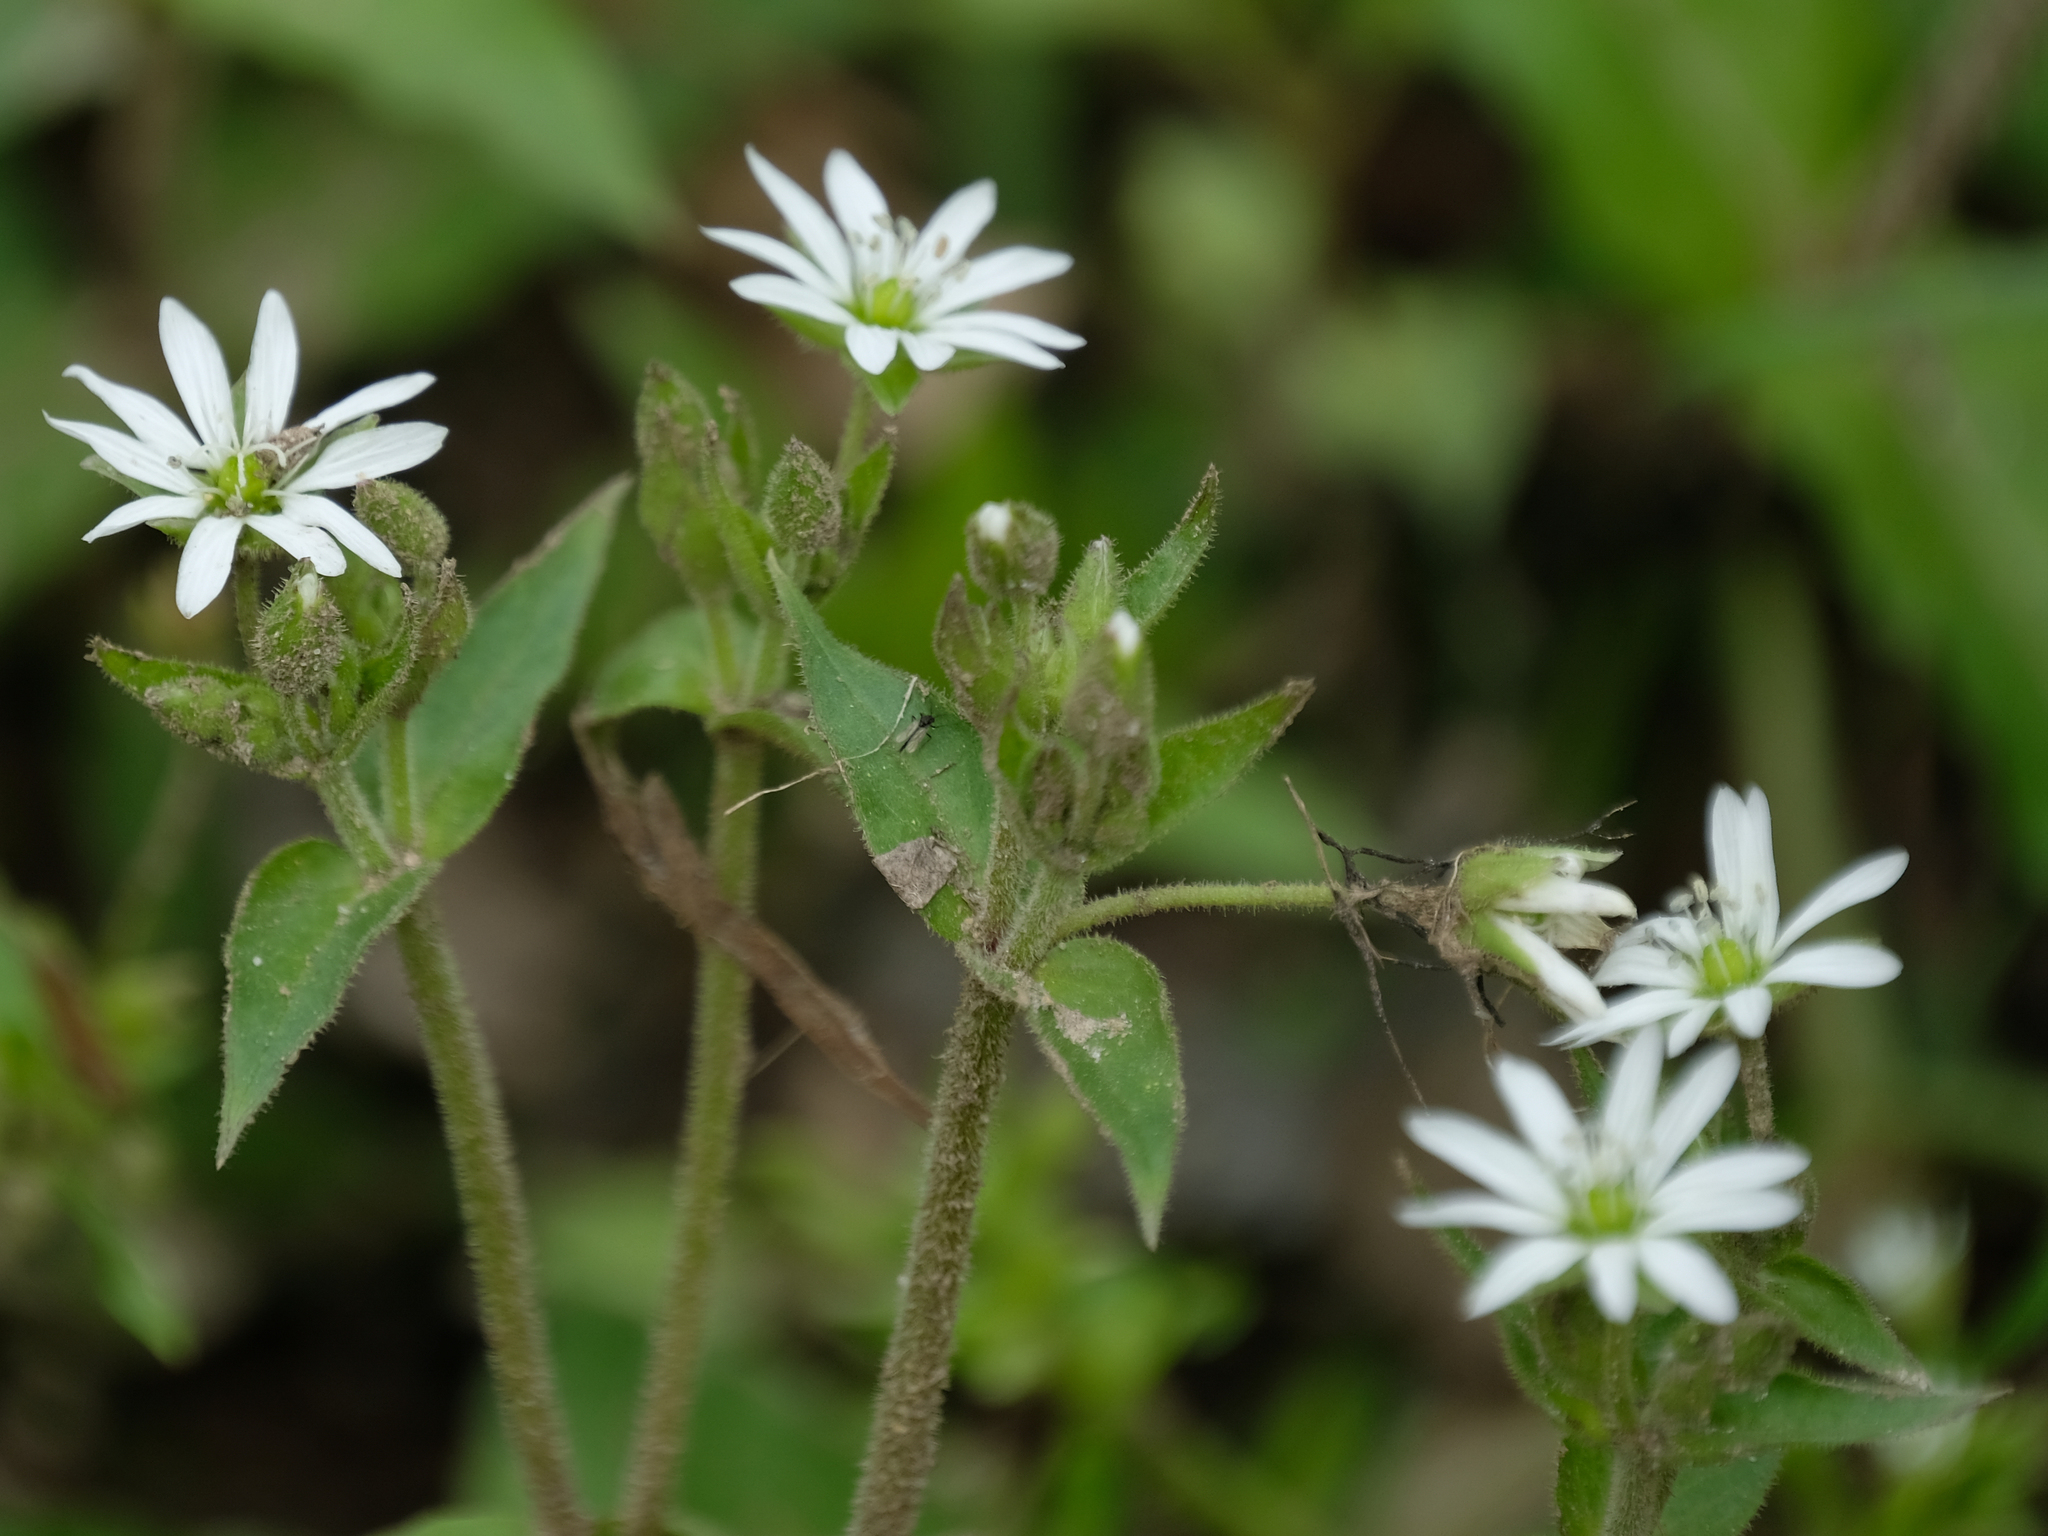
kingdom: Plantae
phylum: Tracheophyta
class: Magnoliopsida
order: Caryophyllales
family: Caryophyllaceae
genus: Stellaria
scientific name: Stellaria pubera
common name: Star chickweed
